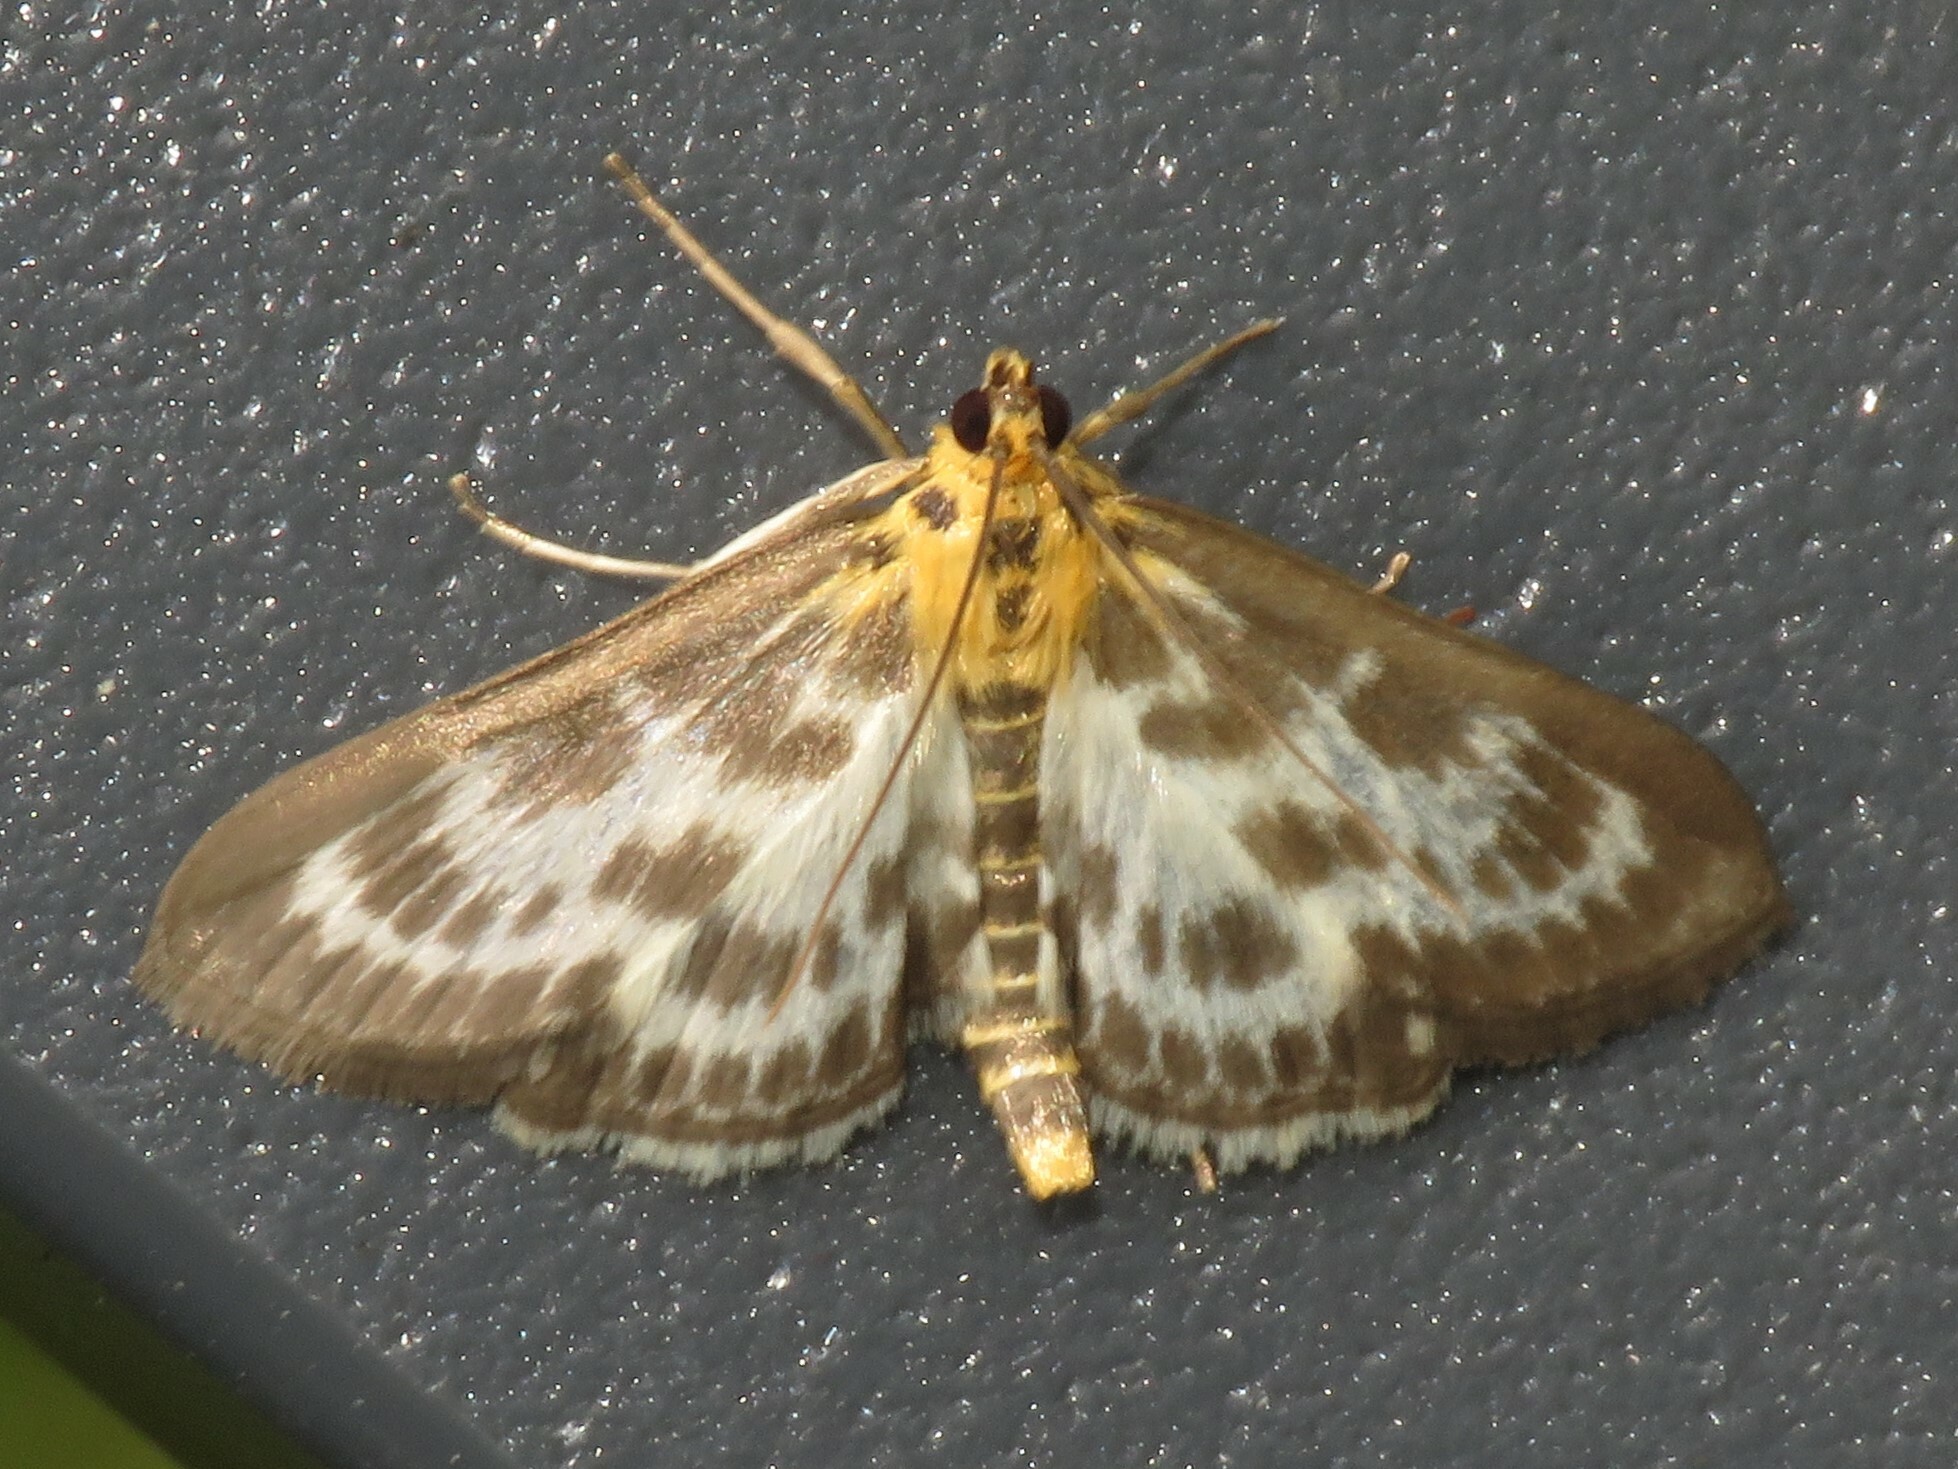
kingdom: Animalia
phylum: Arthropoda
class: Insecta
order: Lepidoptera
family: Crambidae
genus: Anania
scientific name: Anania hortulata
